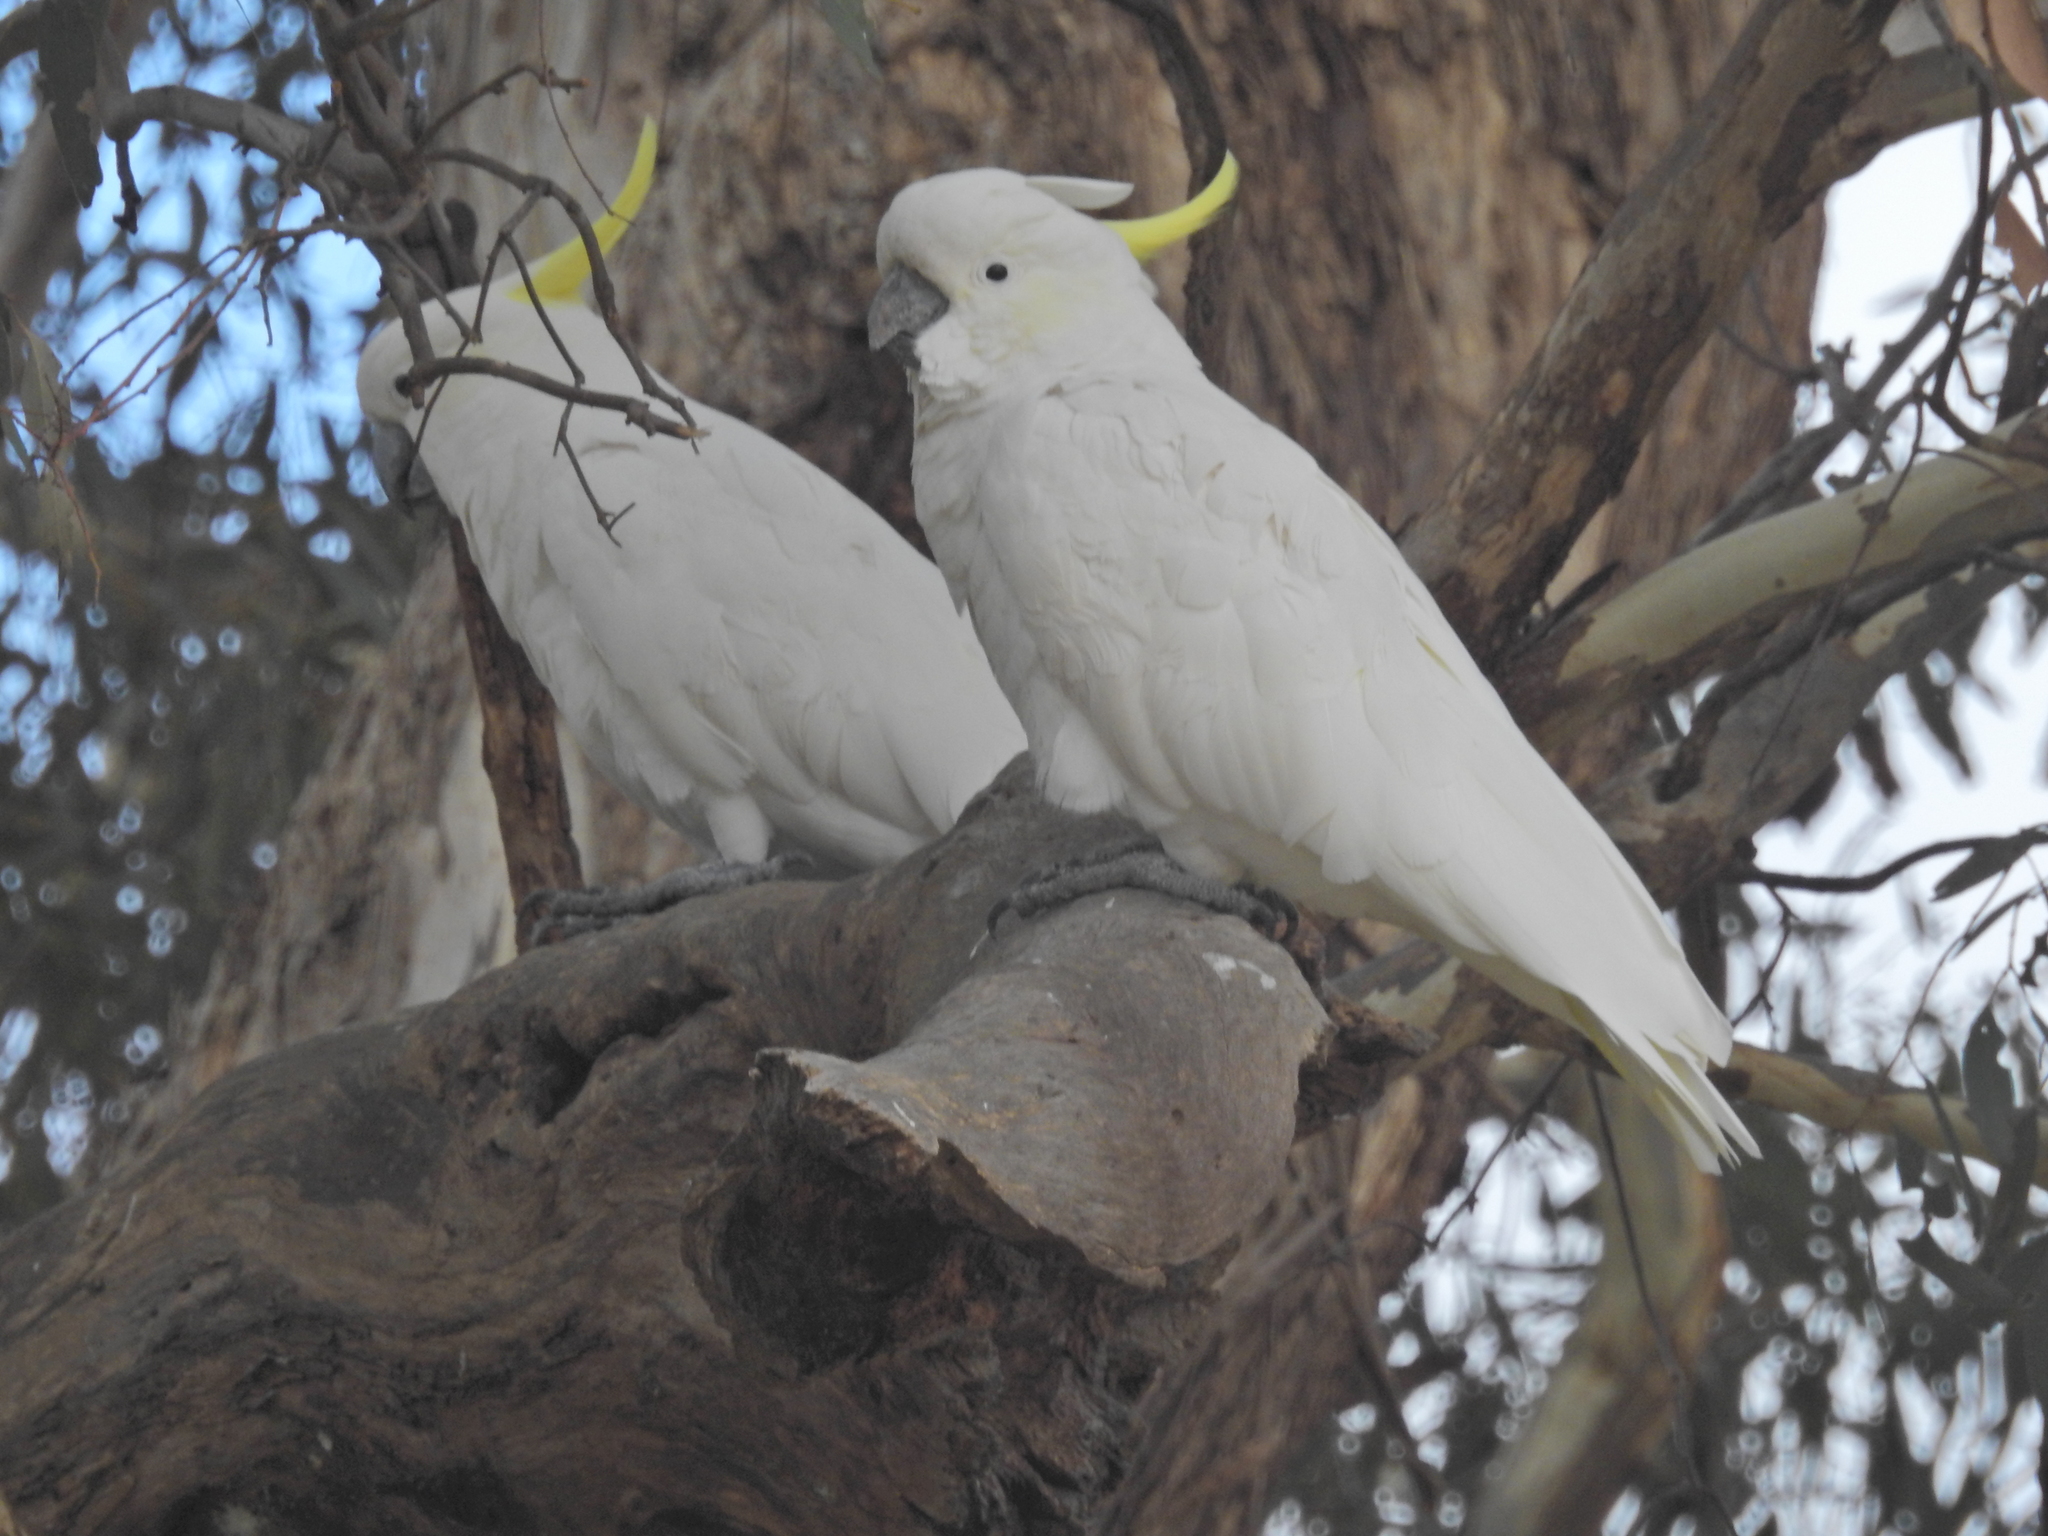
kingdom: Animalia
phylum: Chordata
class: Aves
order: Psittaciformes
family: Psittacidae
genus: Cacatua
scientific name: Cacatua galerita
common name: Sulphur-crested cockatoo
